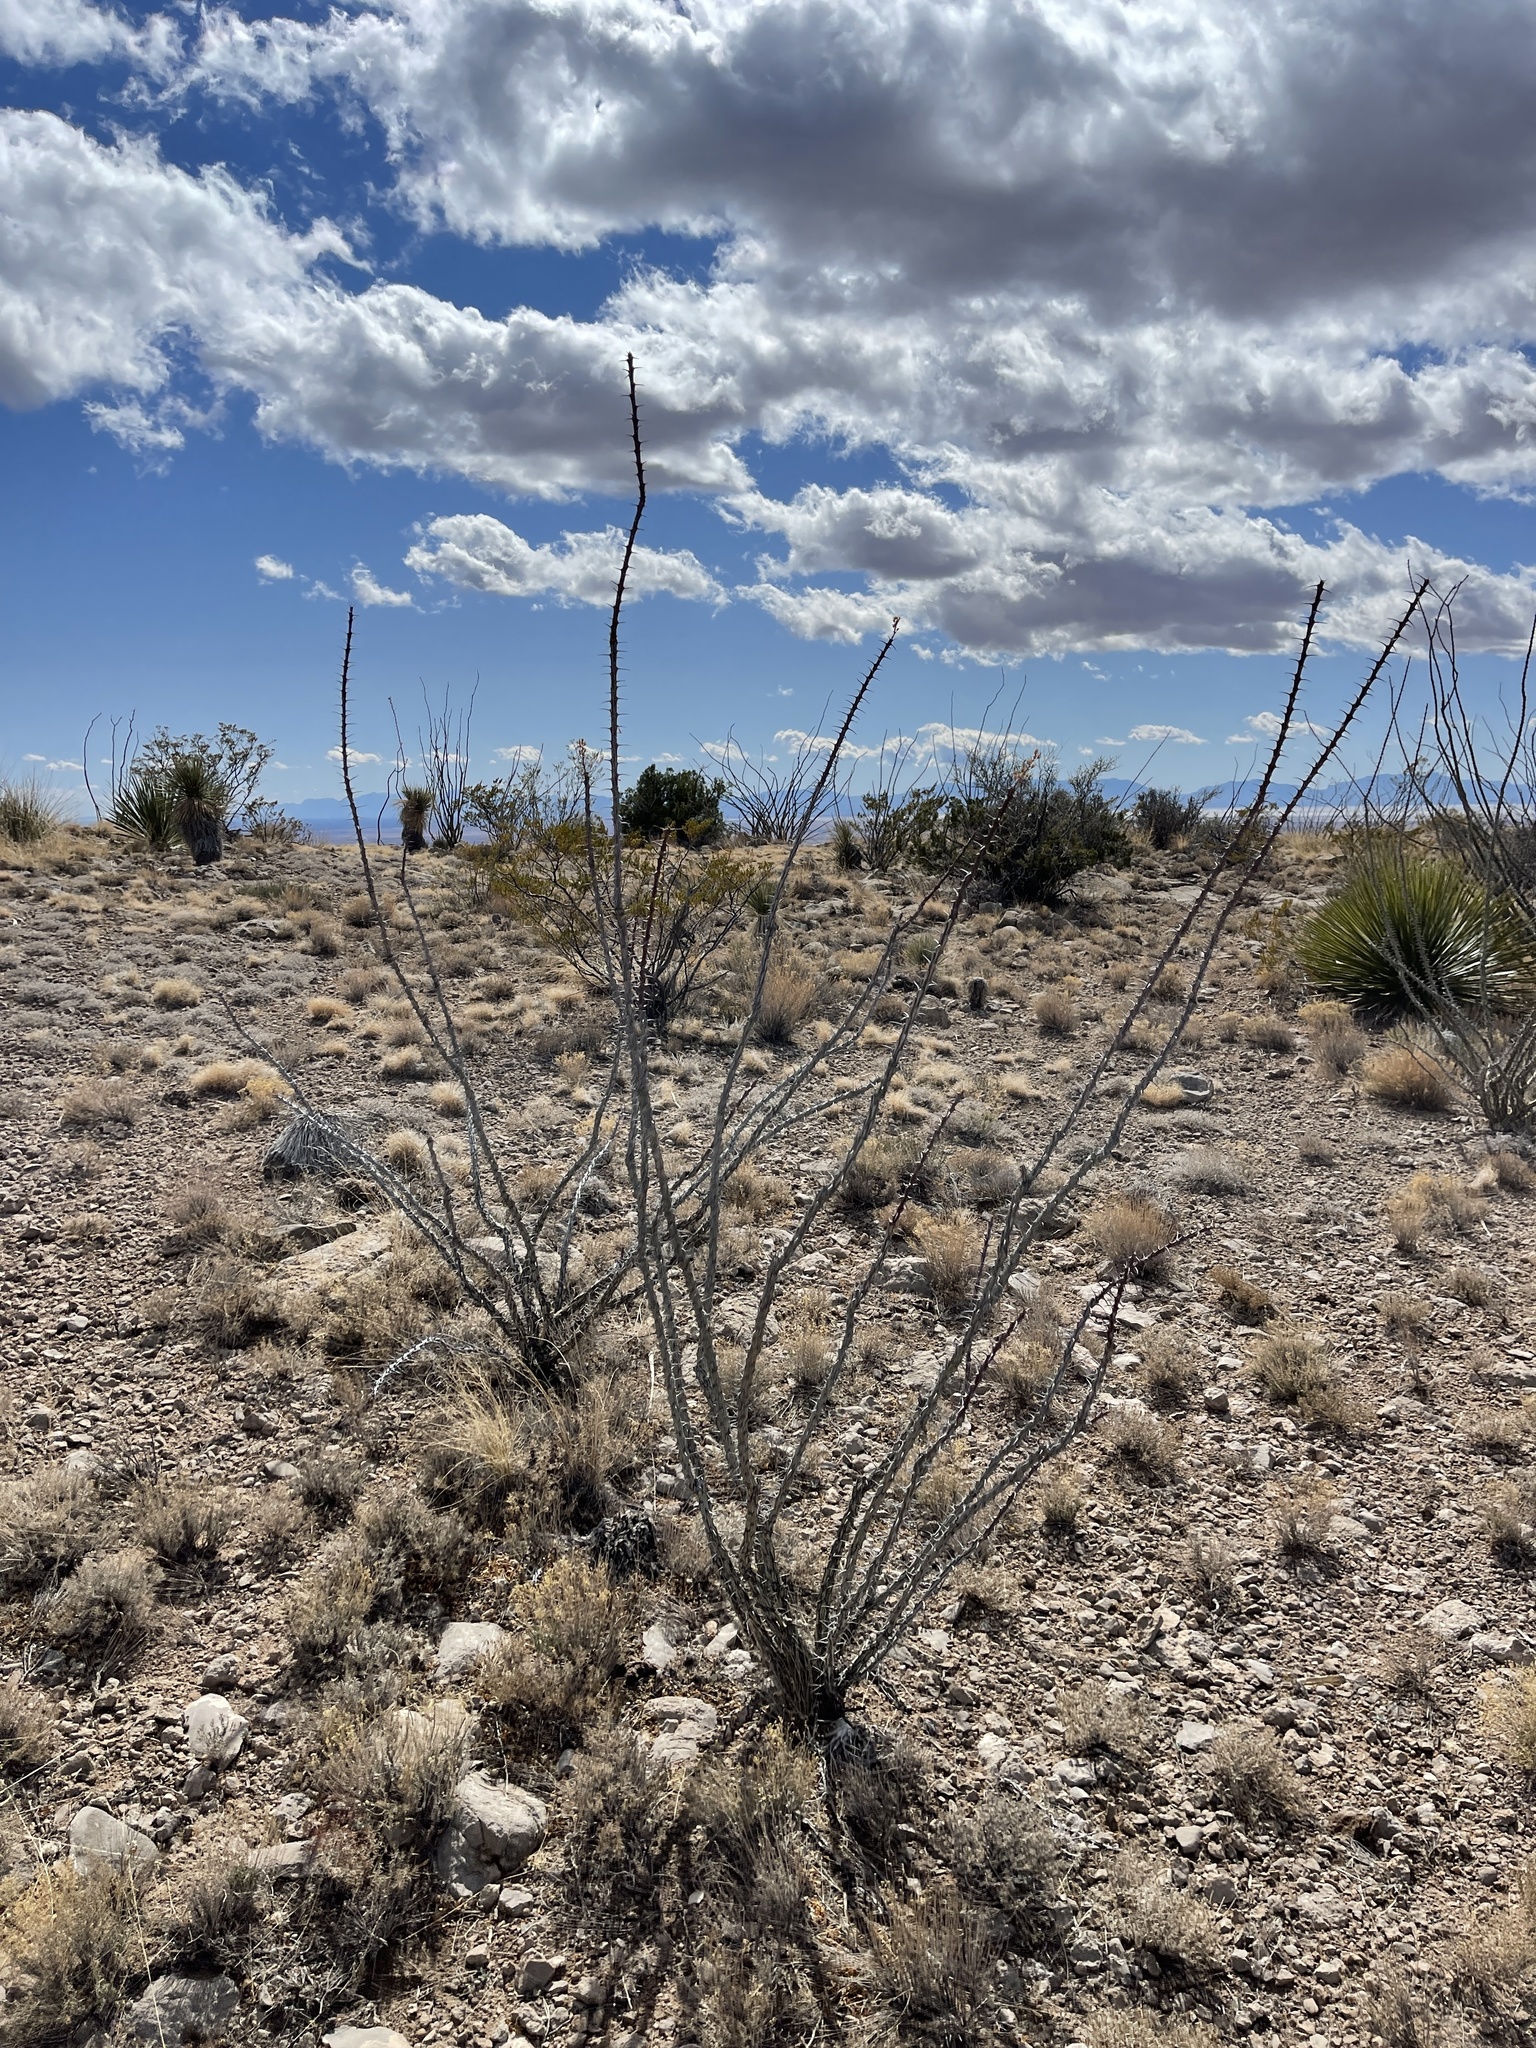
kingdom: Plantae
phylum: Tracheophyta
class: Magnoliopsida
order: Ericales
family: Fouquieriaceae
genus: Fouquieria
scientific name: Fouquieria splendens
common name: Vine-cactus
